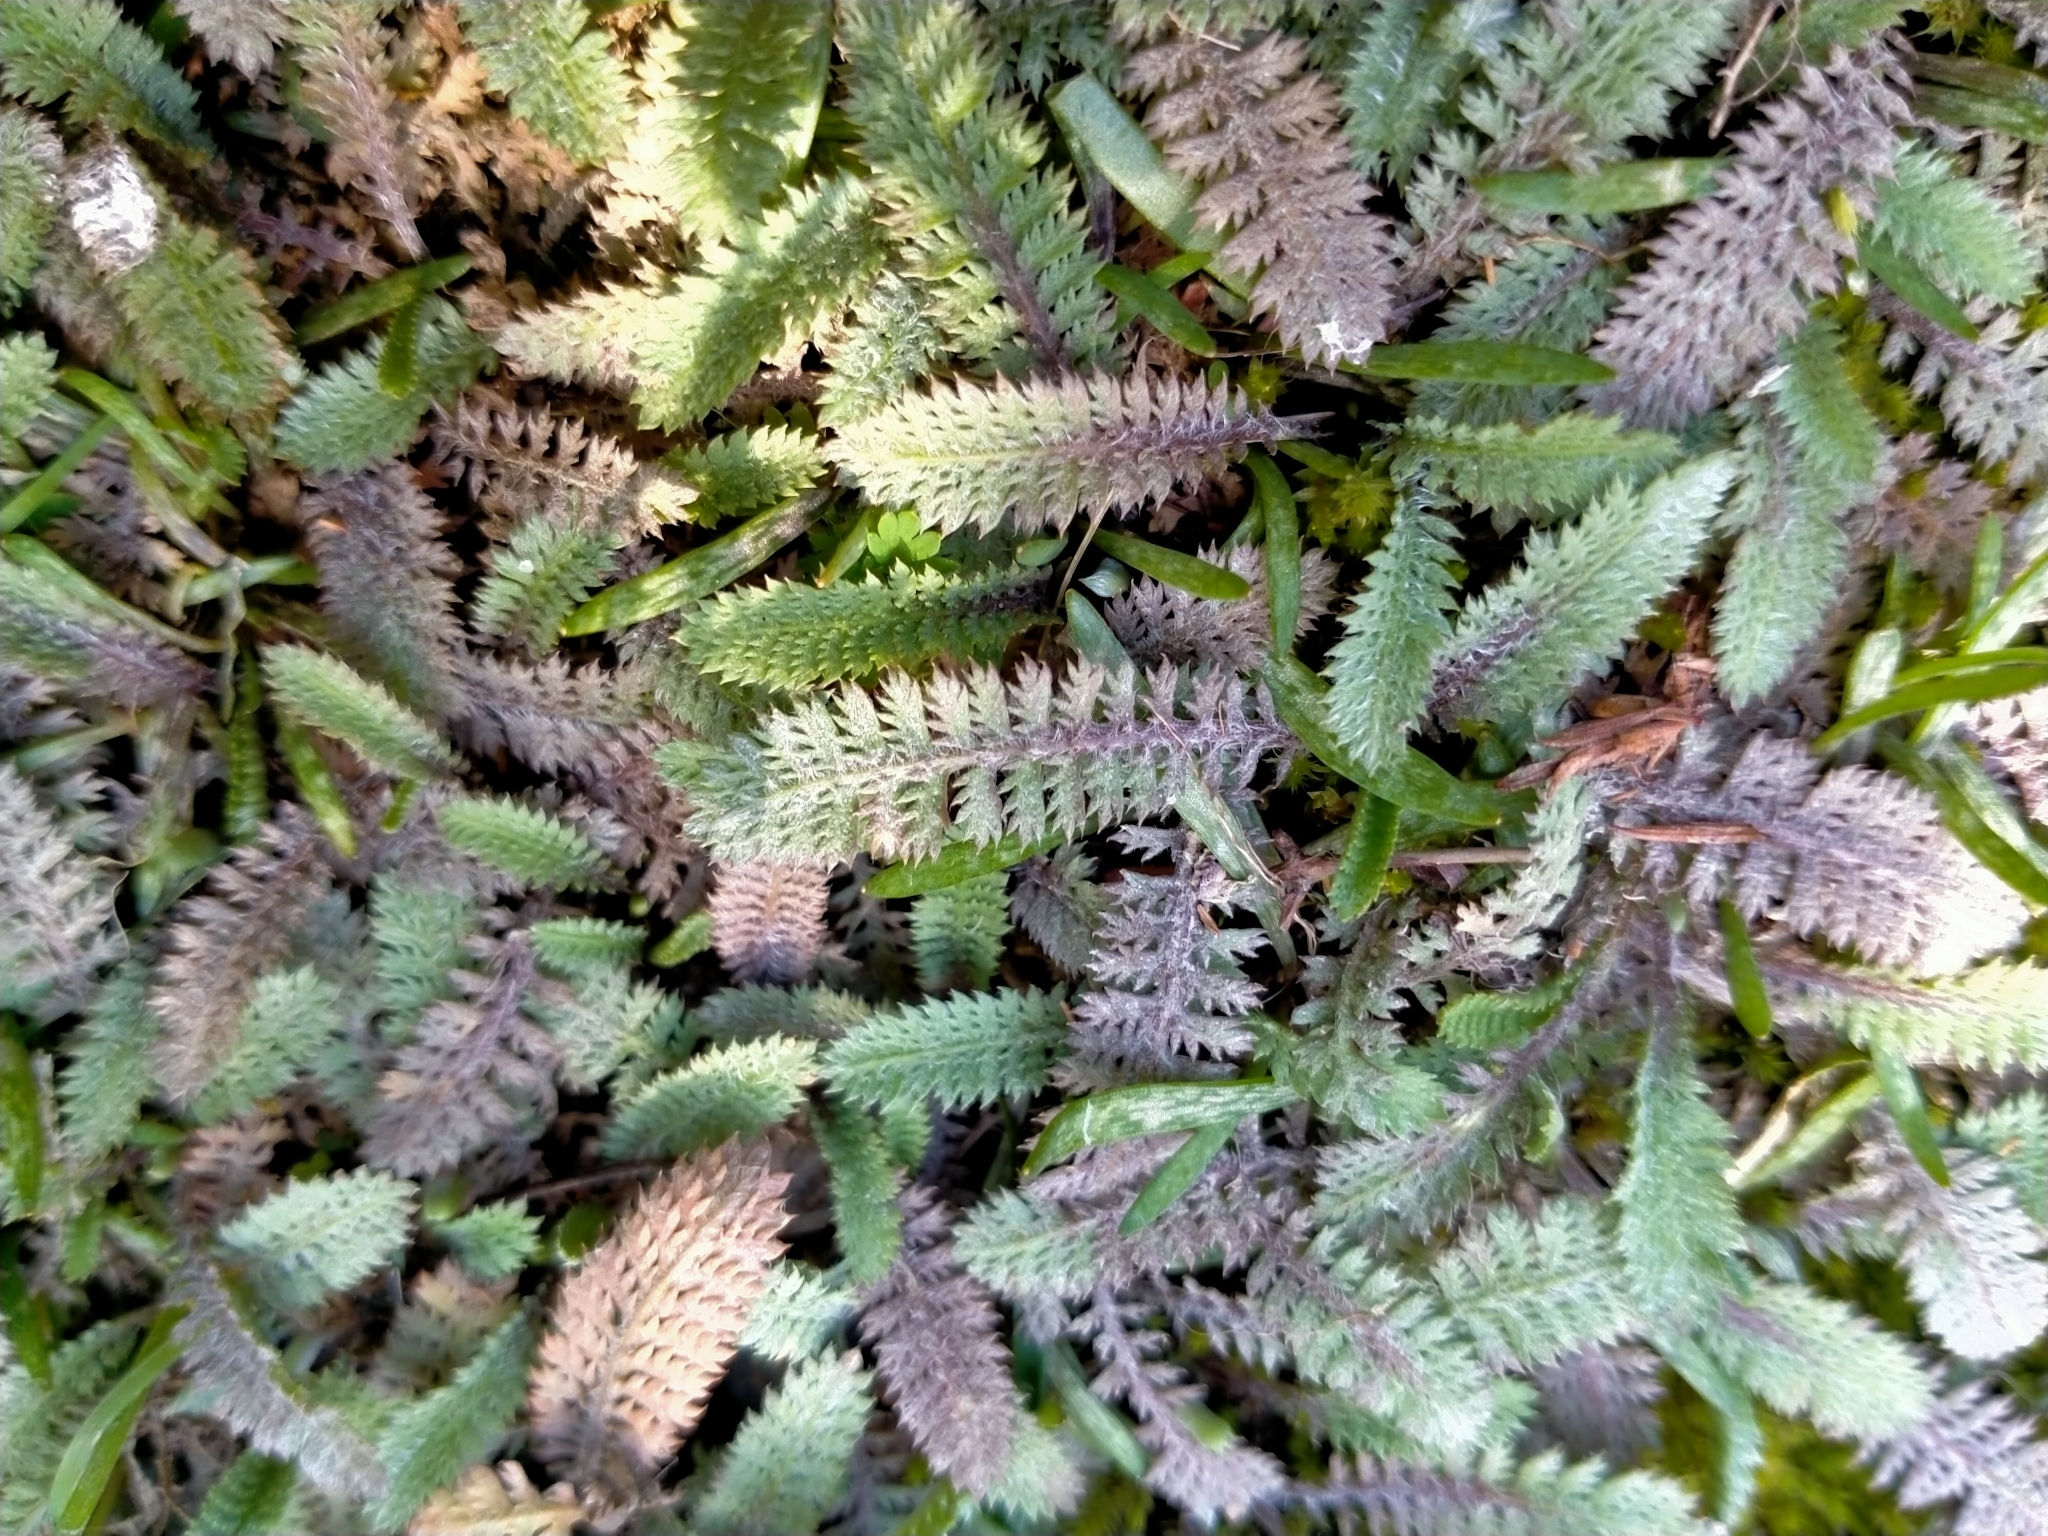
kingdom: Plantae
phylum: Tracheophyta
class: Magnoliopsida
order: Asterales
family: Asteraceae
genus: Leptinella
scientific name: Leptinella serrulata
